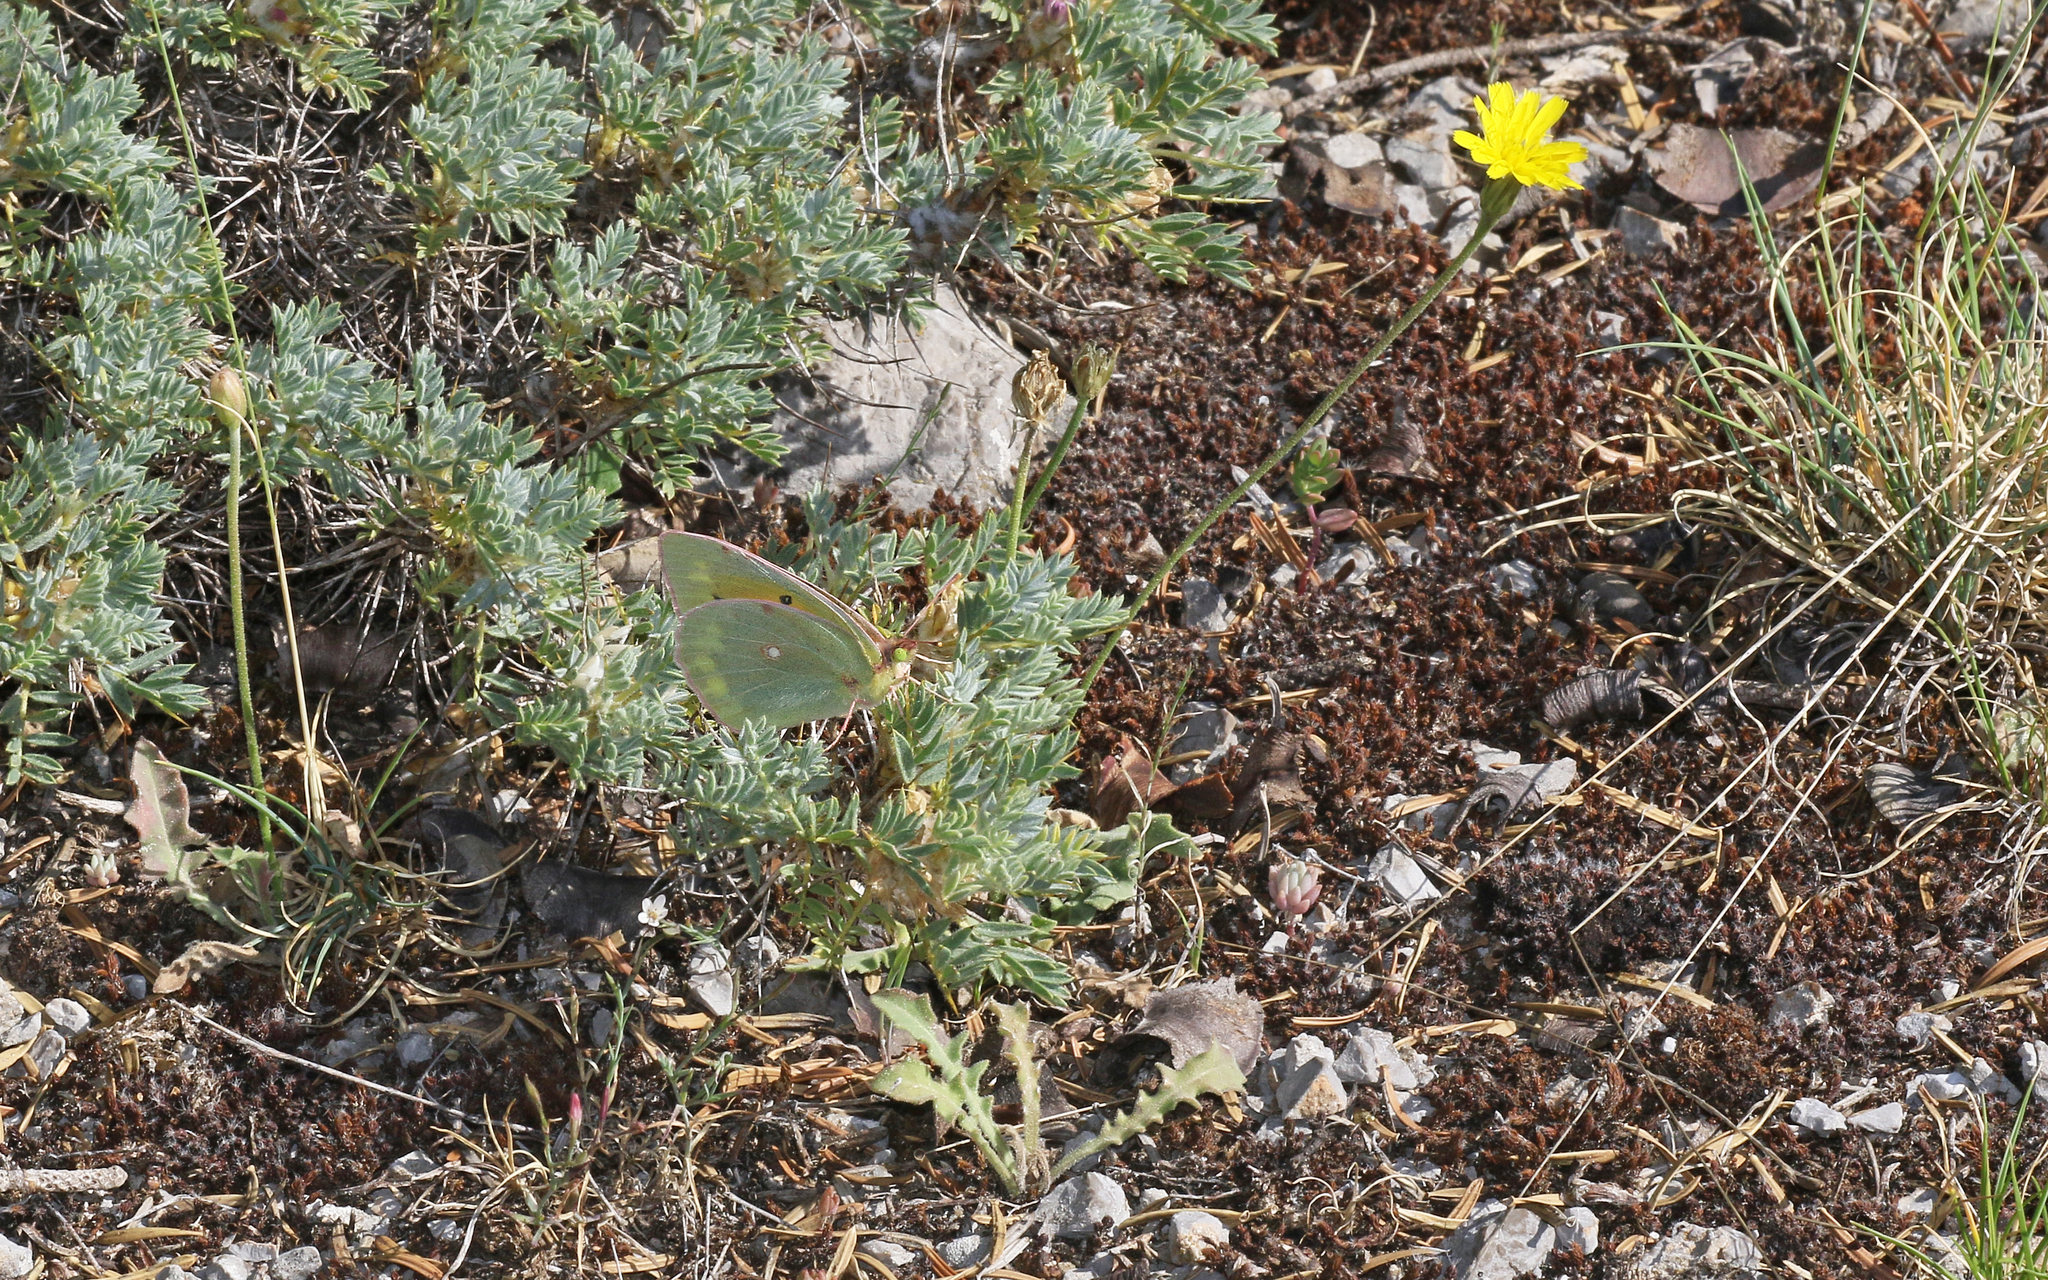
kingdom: Animalia
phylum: Arthropoda
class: Insecta
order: Lepidoptera
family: Pieridae
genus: Colias
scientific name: Colias aurorina
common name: Greek clouded yellow
